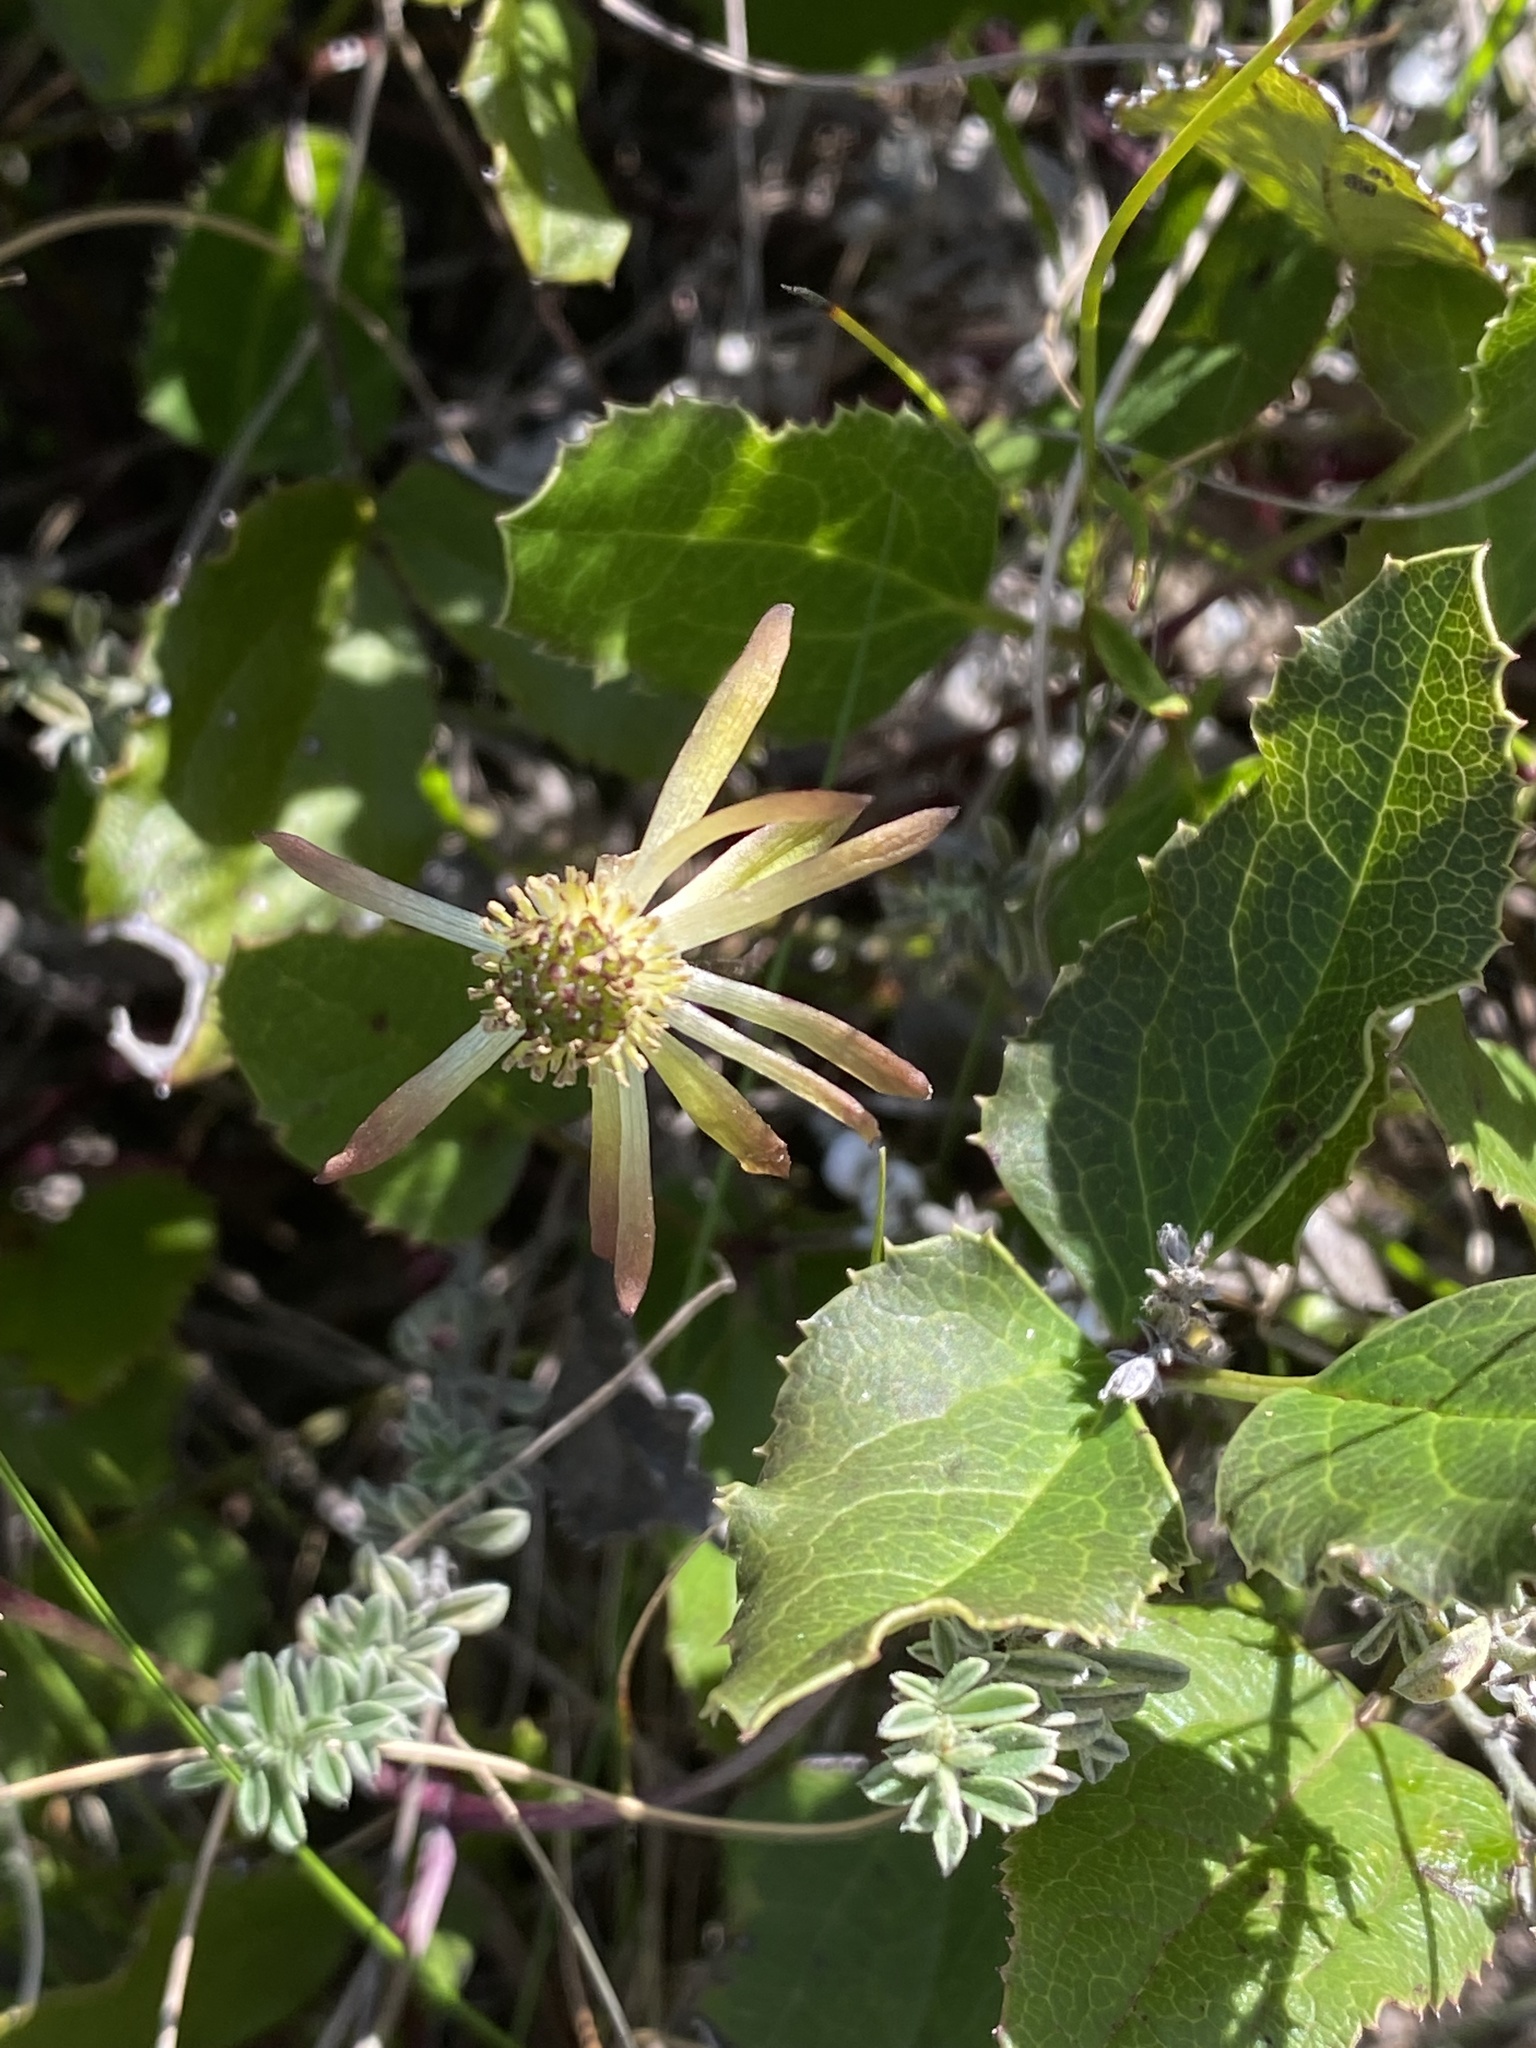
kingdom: Plantae
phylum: Tracheophyta
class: Magnoliopsida
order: Ranunculales
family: Ranunculaceae
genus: Knowltonia
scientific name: Knowltonia vesicatoria
